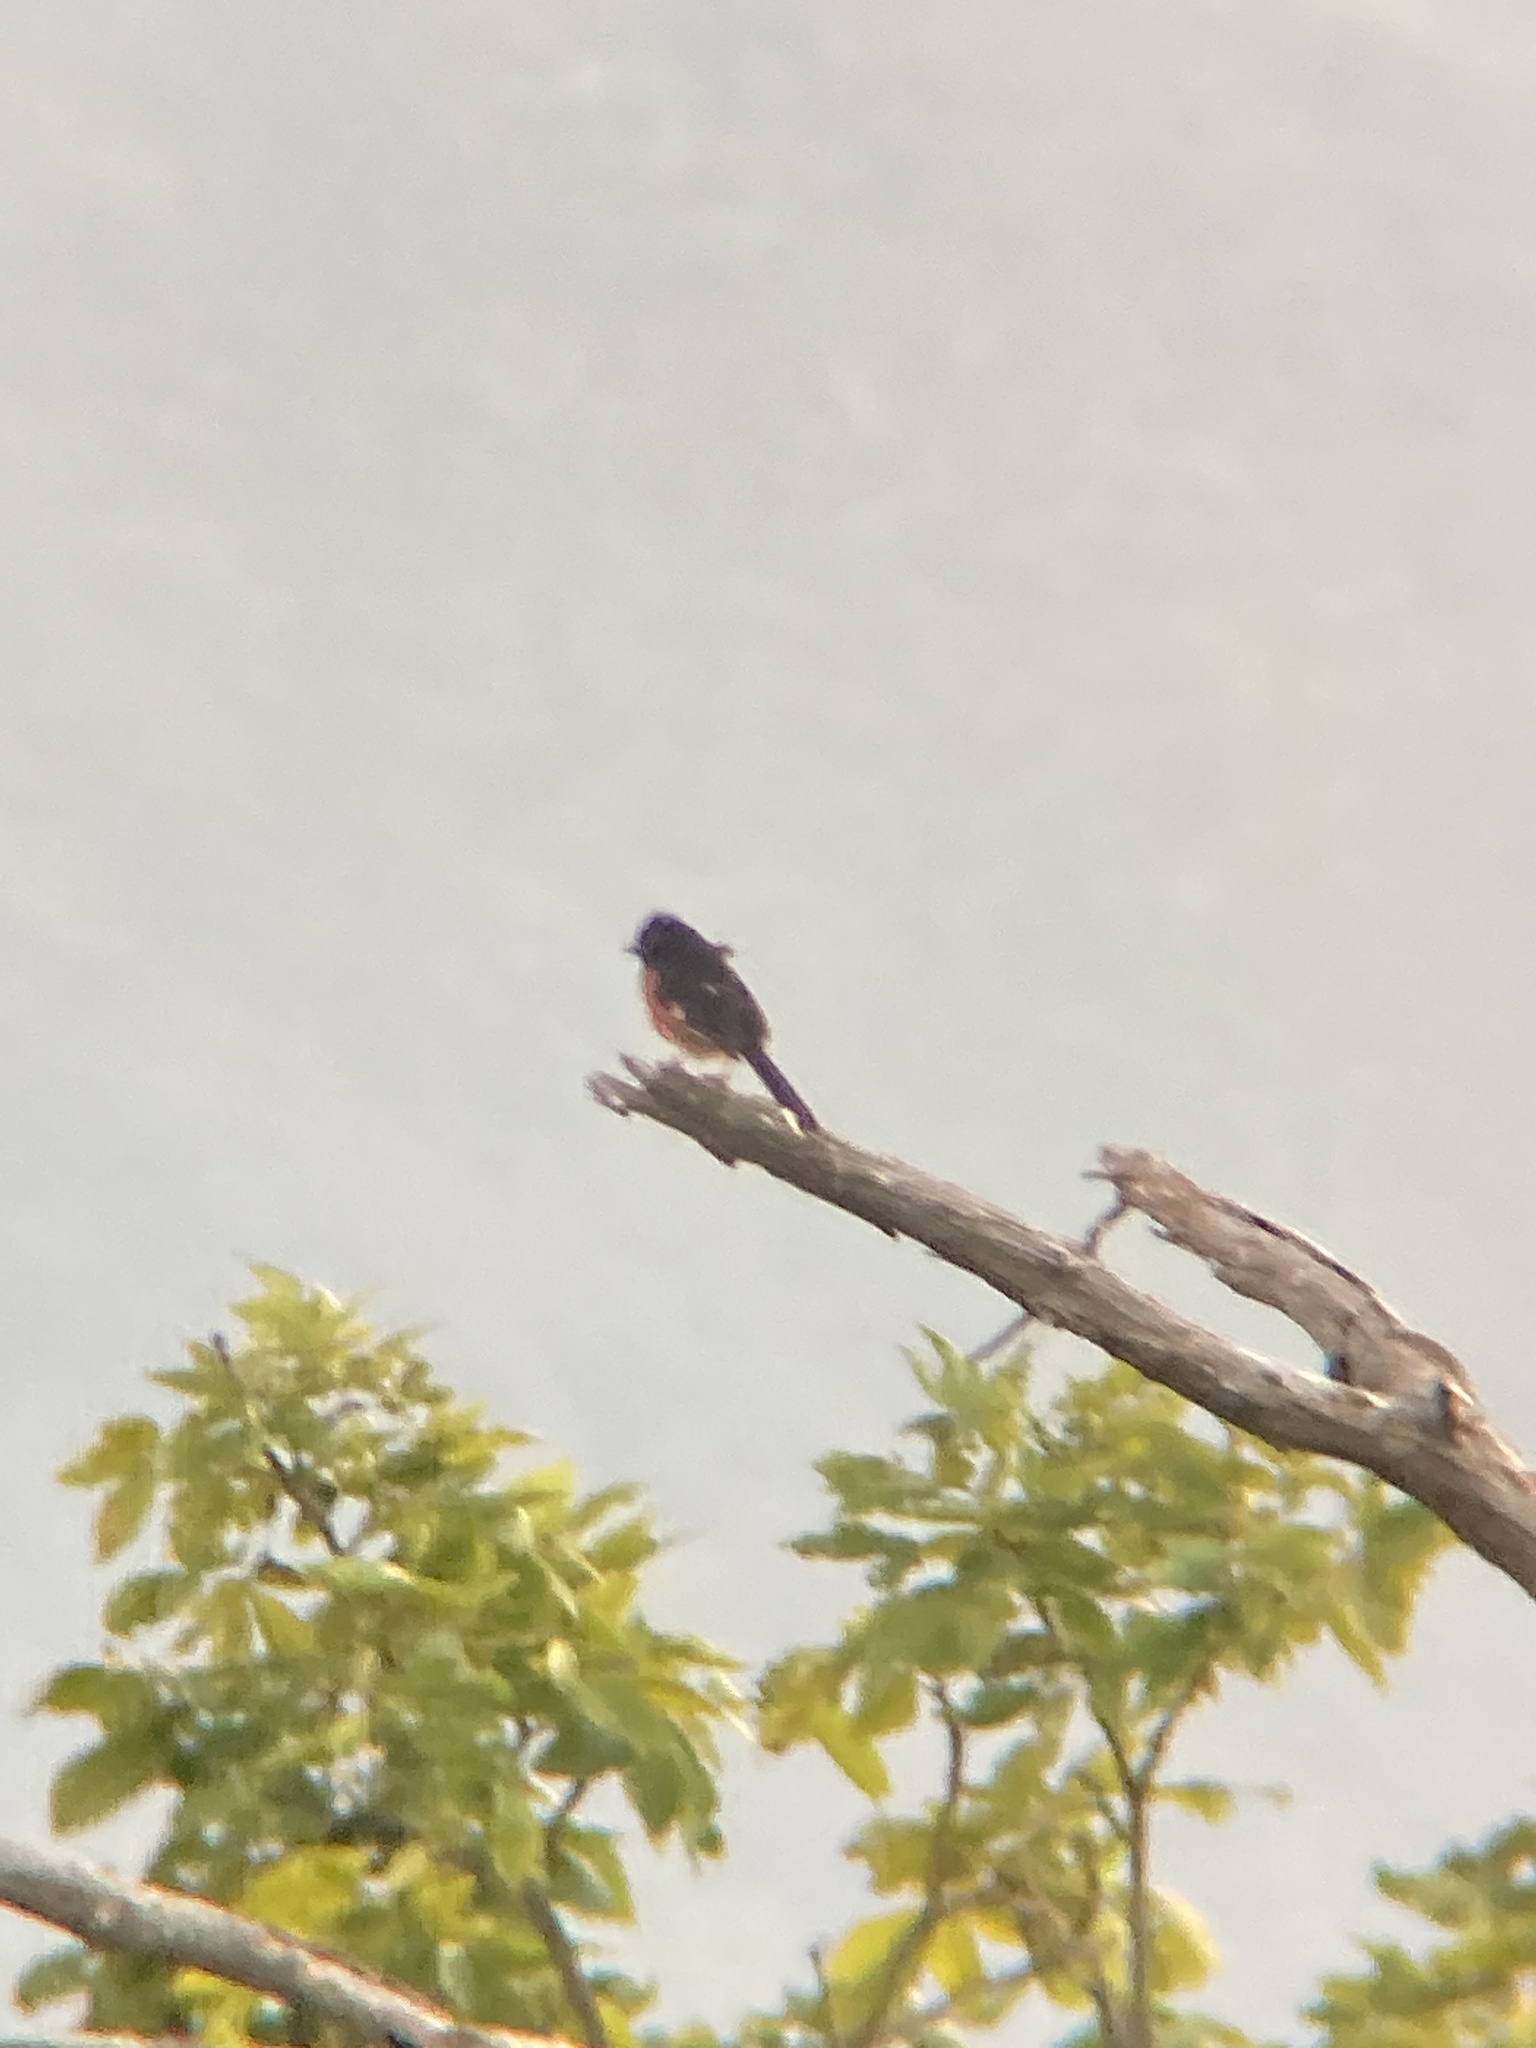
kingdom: Animalia
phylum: Chordata
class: Aves
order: Passeriformes
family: Passerellidae
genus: Pipilo
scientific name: Pipilo erythrophthalmus
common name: Eastern towhee
